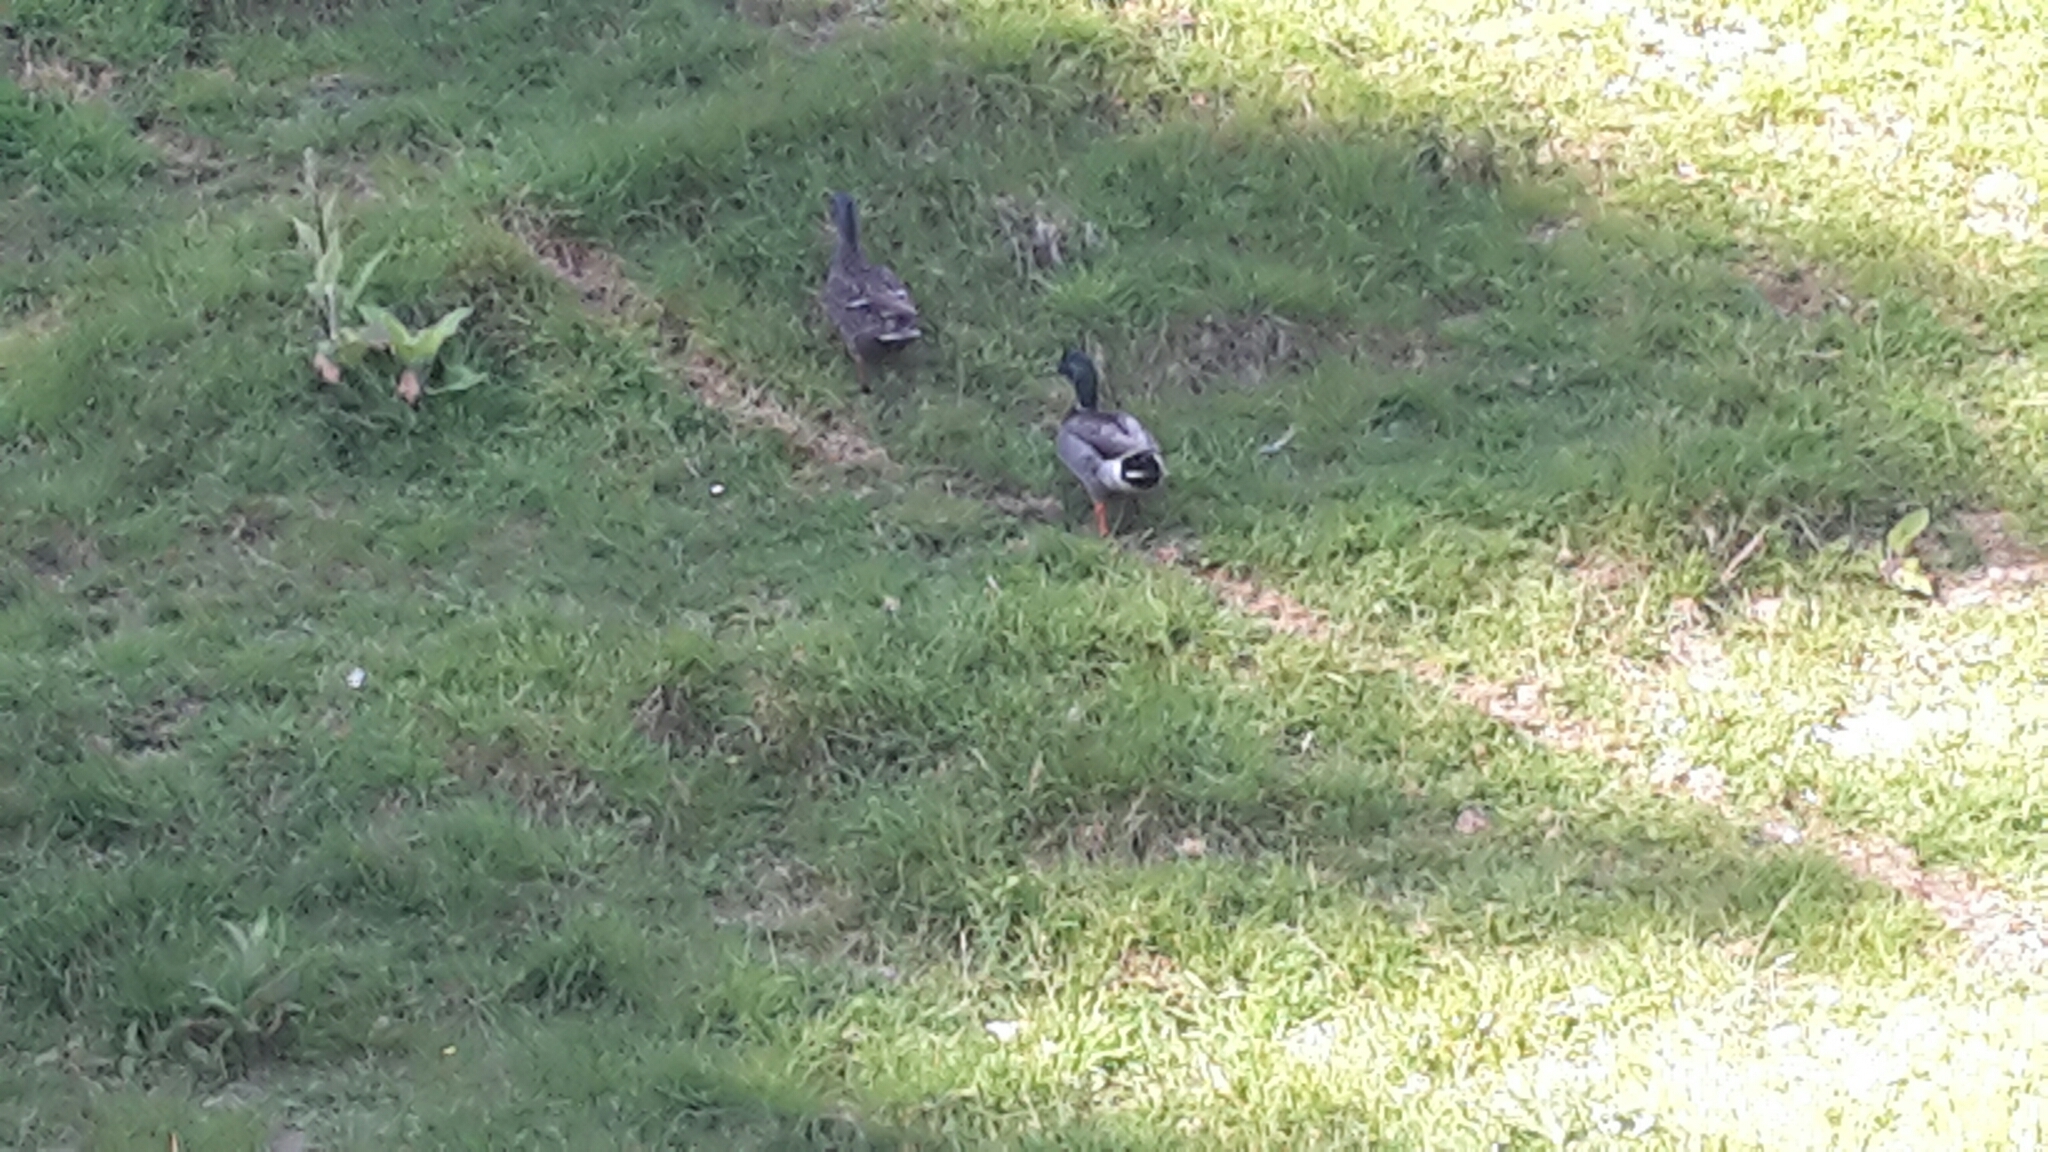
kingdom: Animalia
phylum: Chordata
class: Aves
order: Anseriformes
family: Anatidae
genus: Anas
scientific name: Anas platyrhynchos
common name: Mallard
